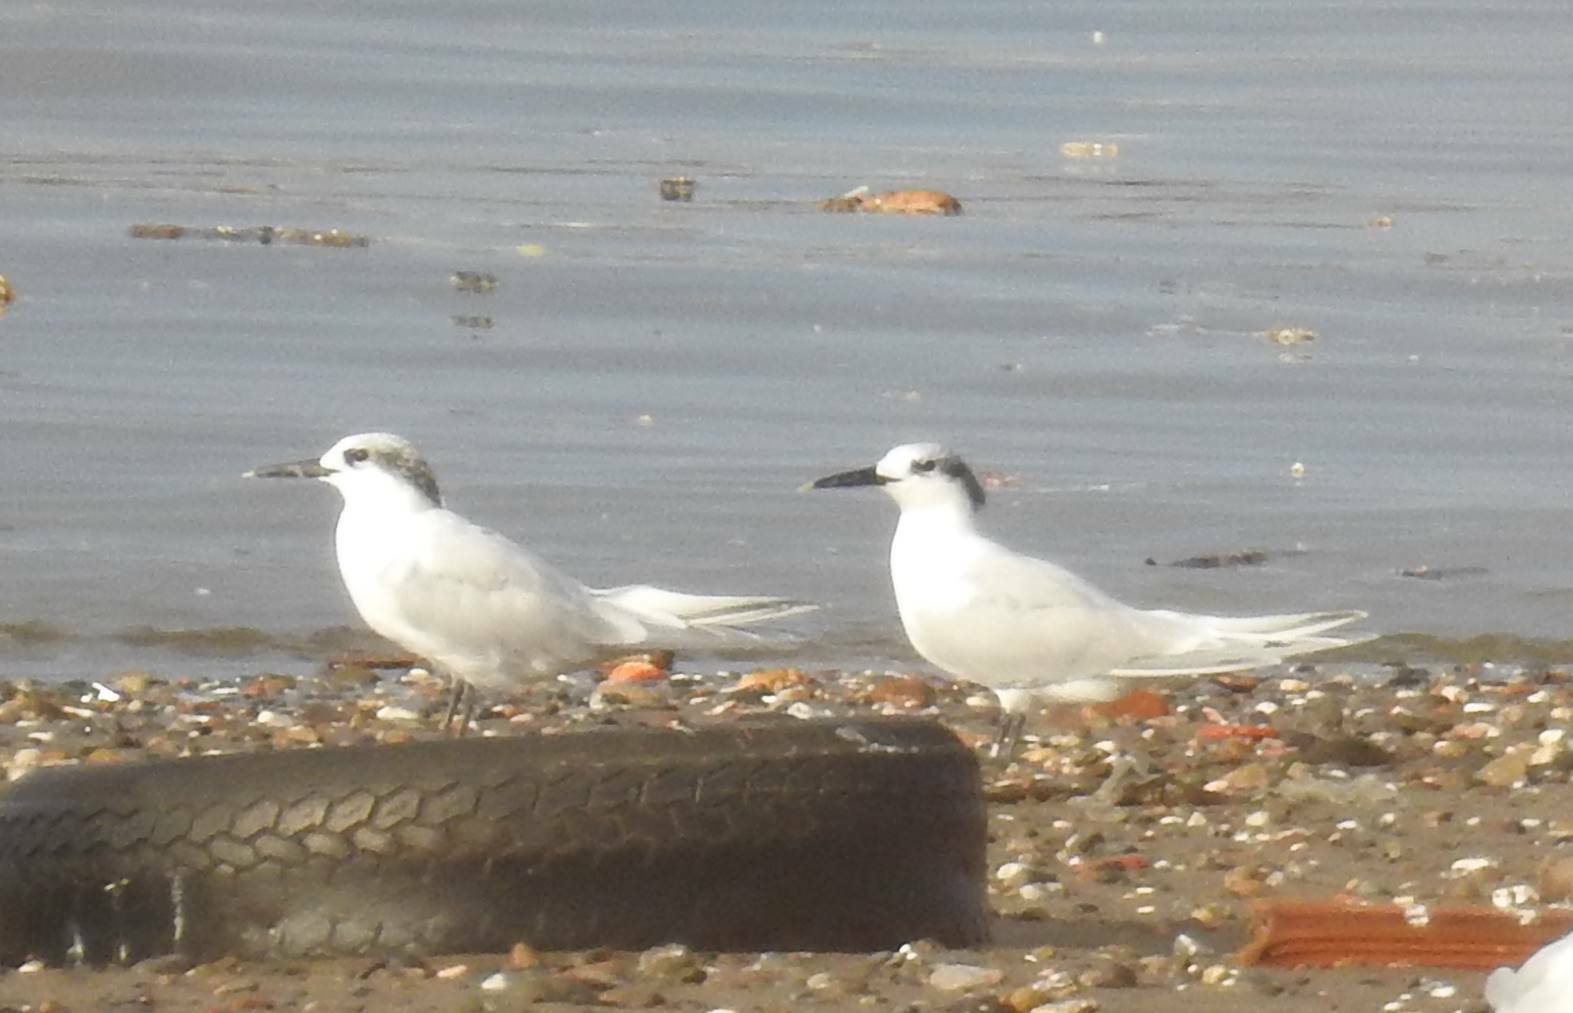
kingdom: Animalia
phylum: Chordata
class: Aves
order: Charadriiformes
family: Laridae
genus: Thalasseus
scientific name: Thalasseus sandvicensis
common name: Sandwich tern
